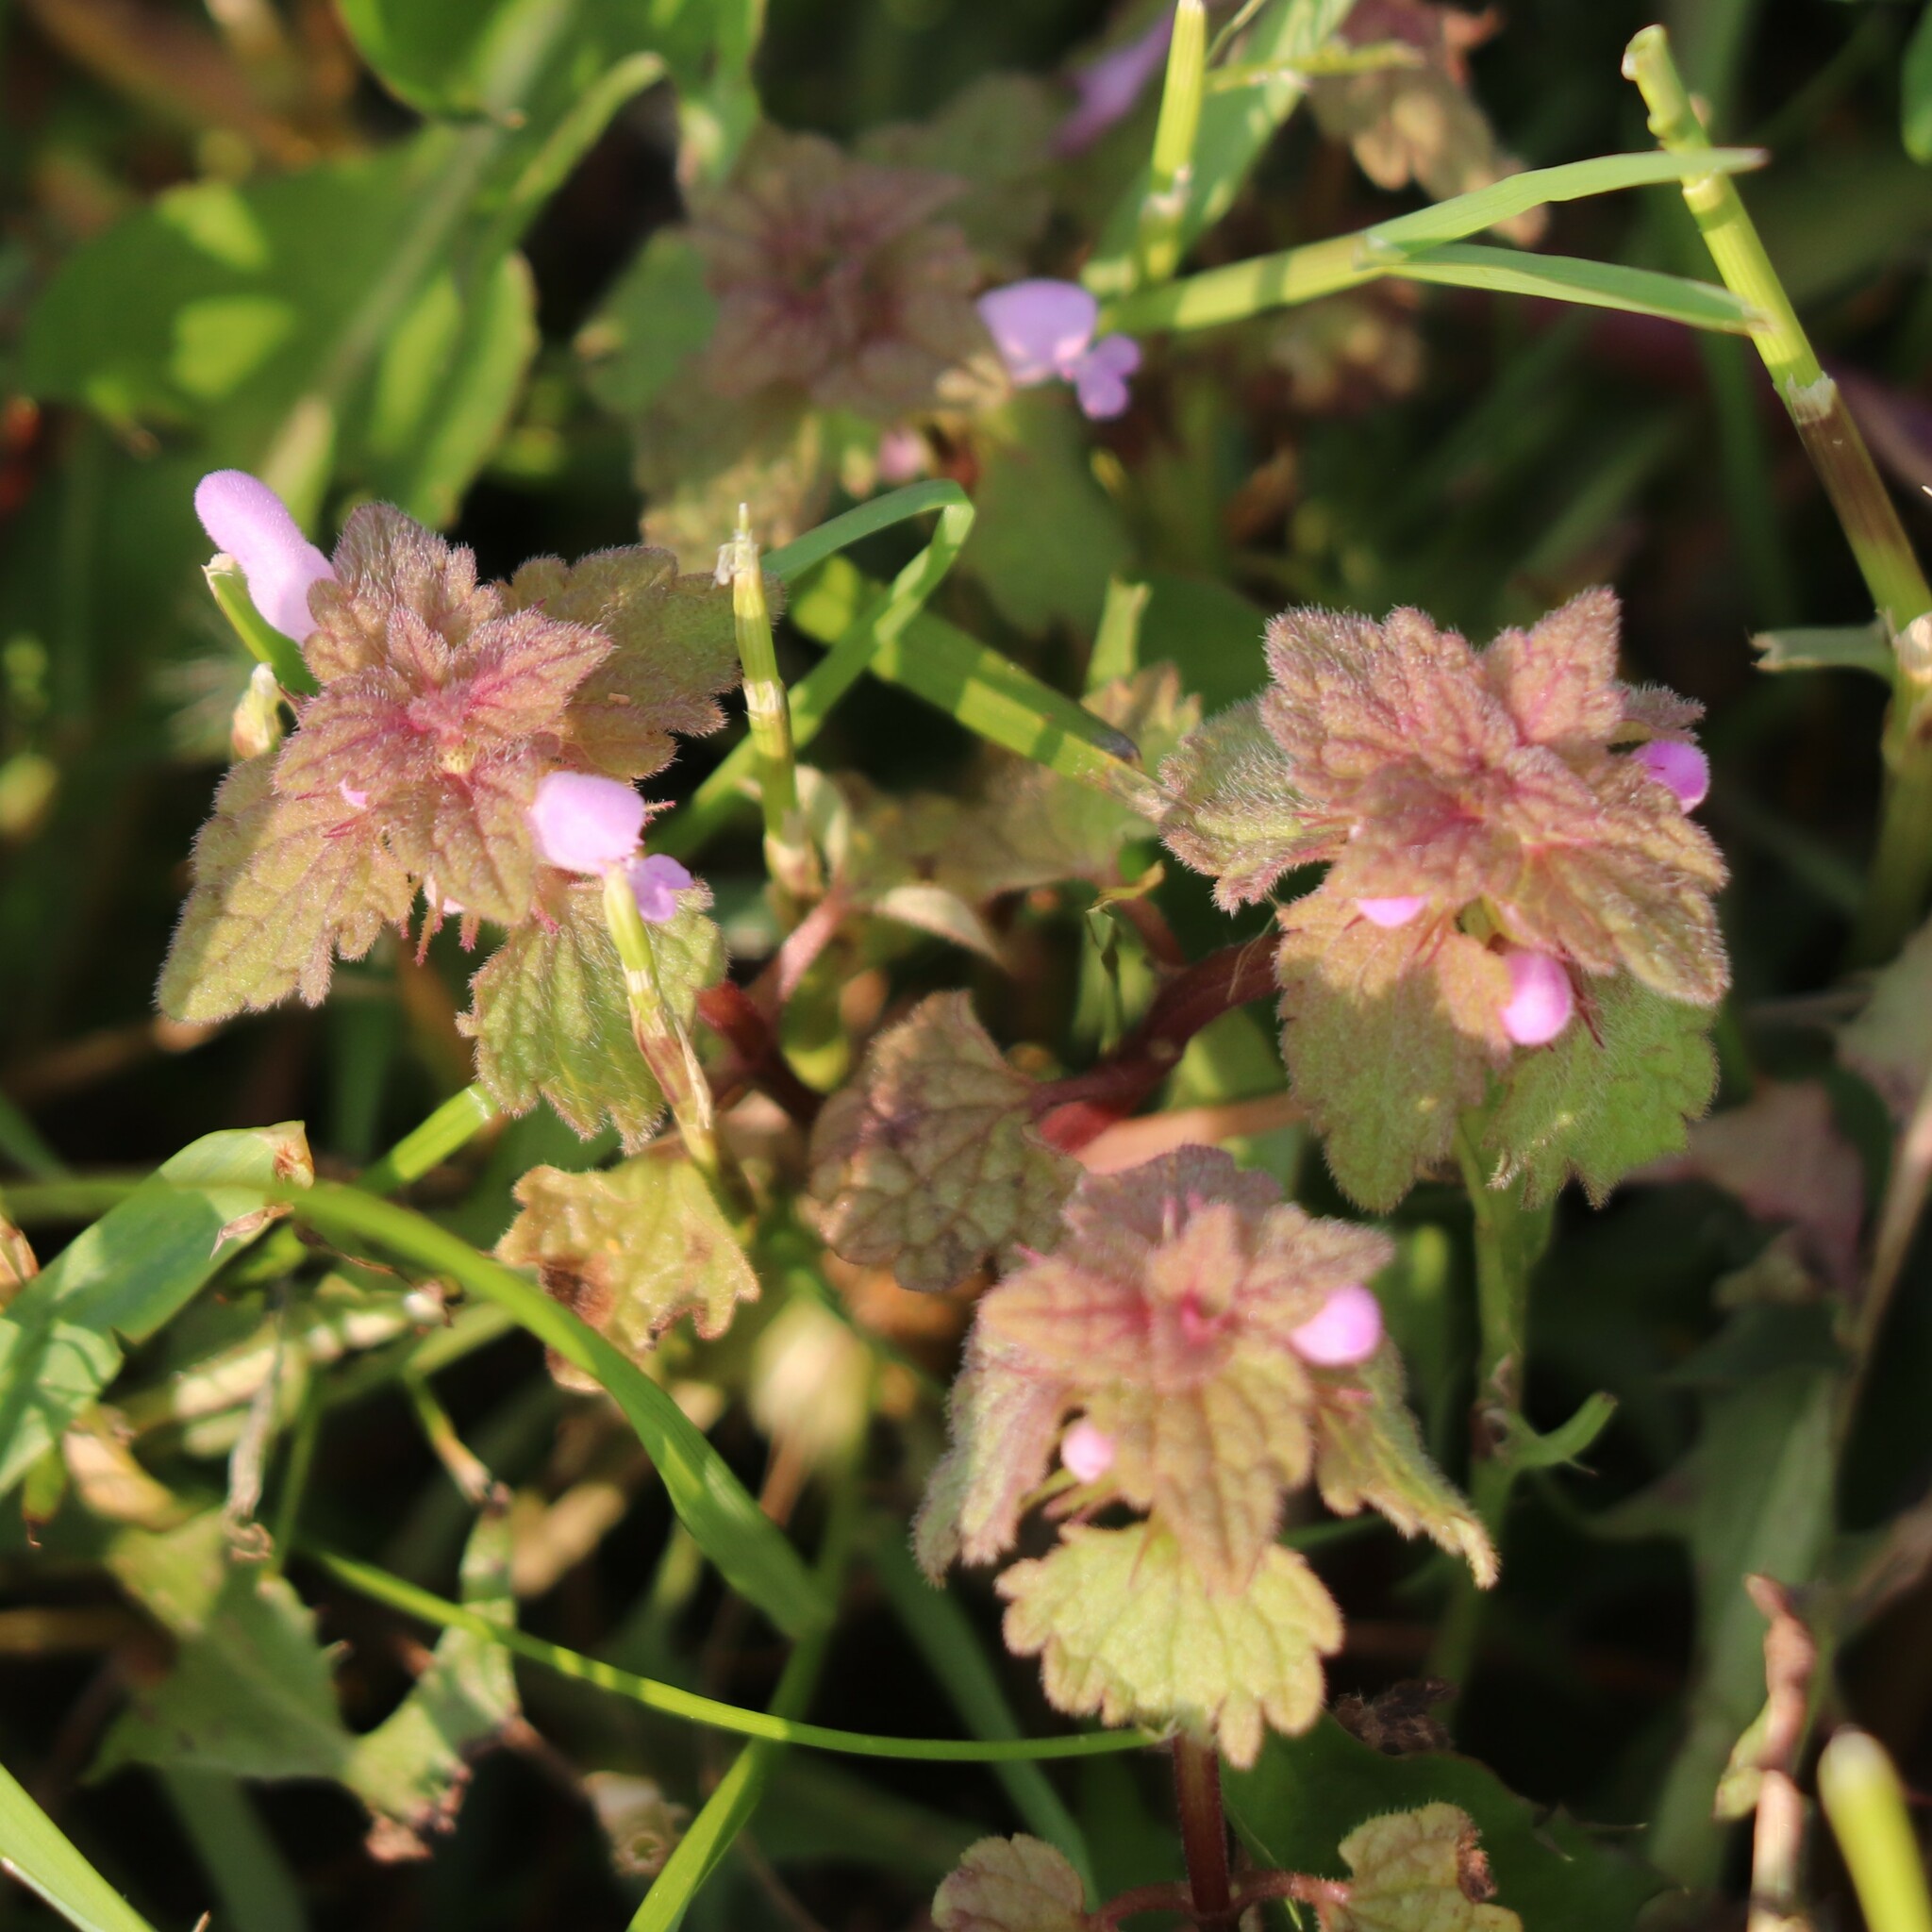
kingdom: Plantae
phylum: Tracheophyta
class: Magnoliopsida
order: Lamiales
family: Lamiaceae
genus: Lamium
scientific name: Lamium purpureum
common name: Red dead-nettle
